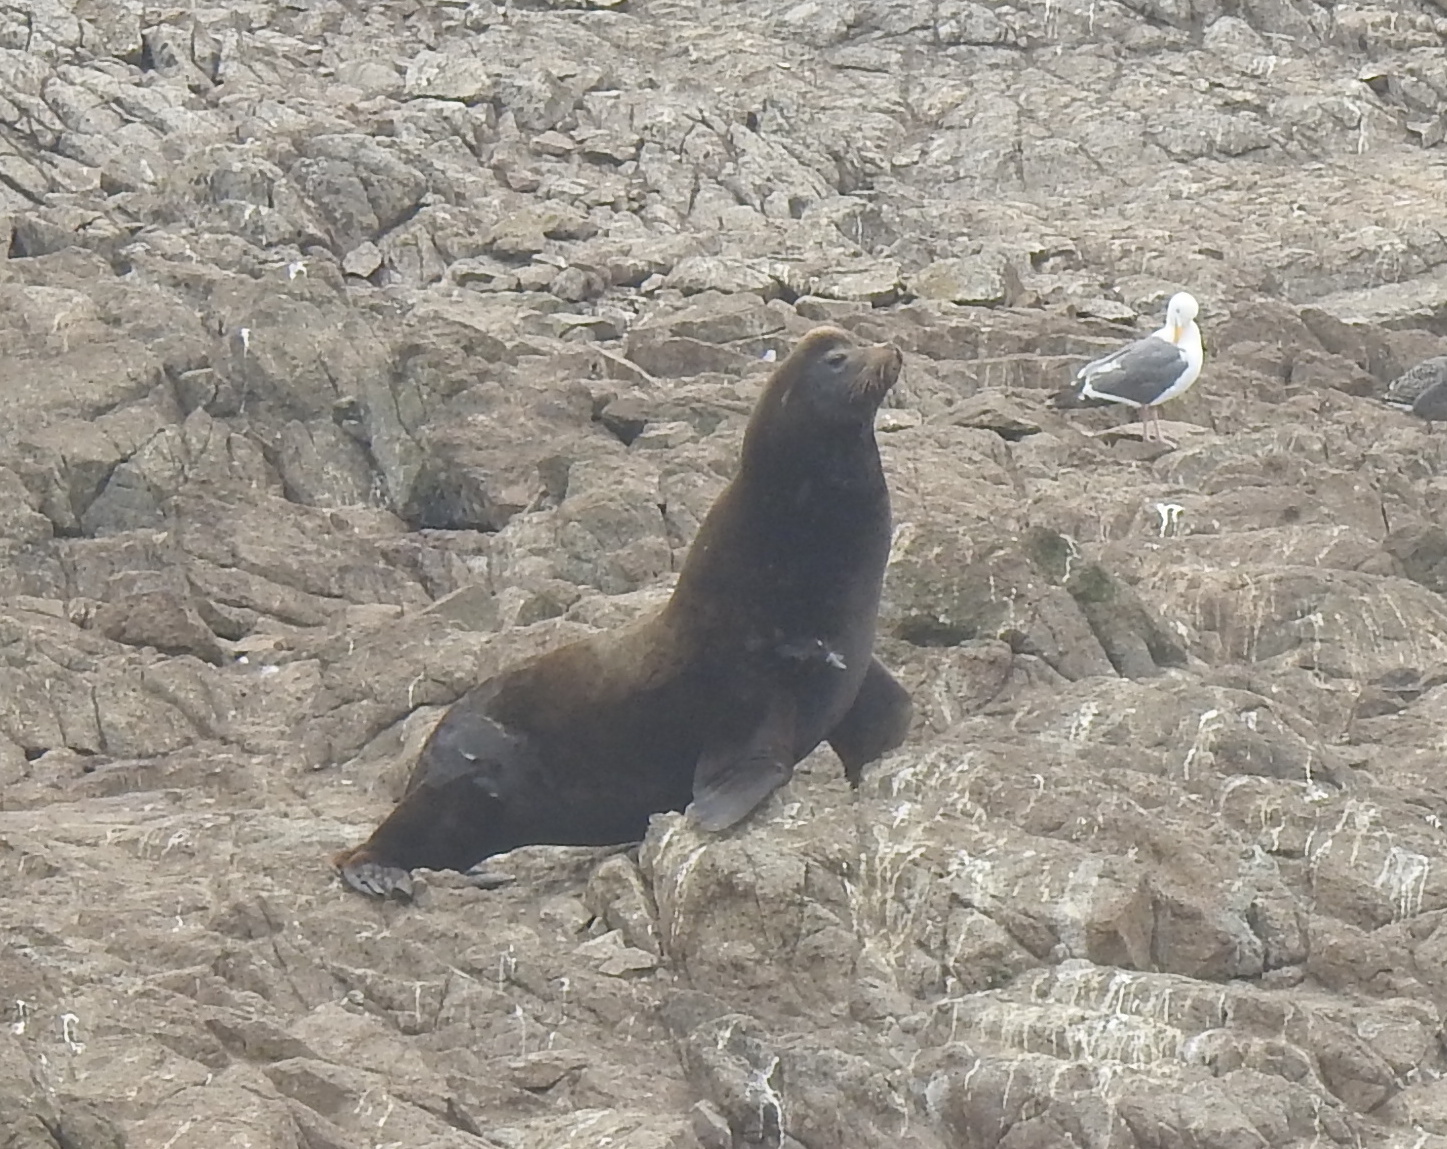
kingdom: Animalia
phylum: Chordata
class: Mammalia
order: Carnivora
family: Otariidae
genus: Zalophus
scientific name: Zalophus californianus
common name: California sea lion
